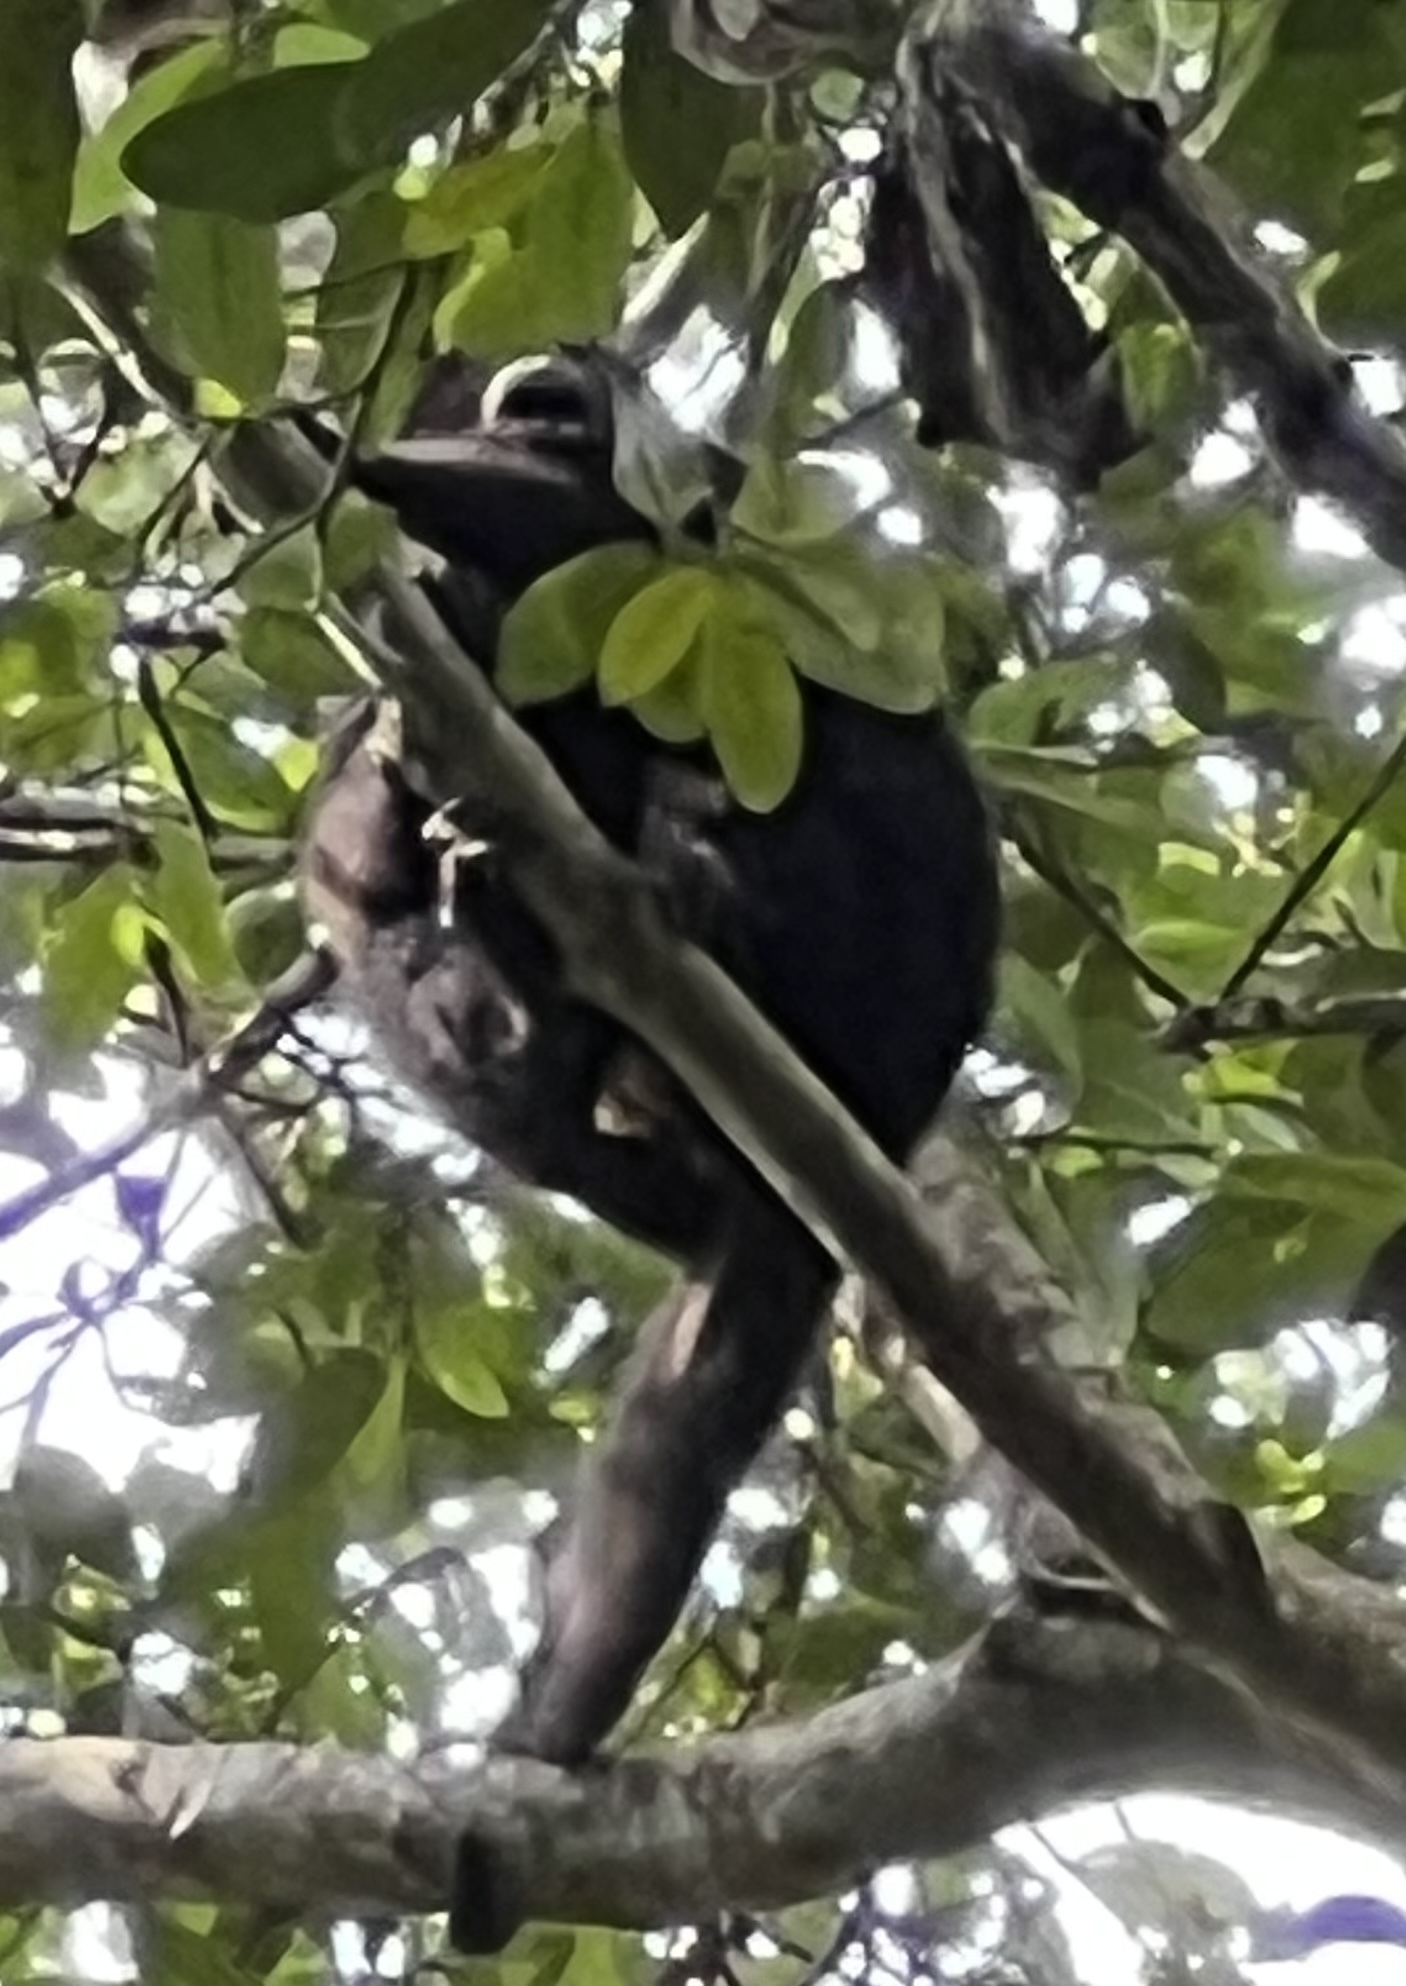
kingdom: Animalia
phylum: Chordata
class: Mammalia
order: Primates
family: Atelidae
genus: Alouatta
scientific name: Alouatta pigra
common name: Guatemalan black howler
